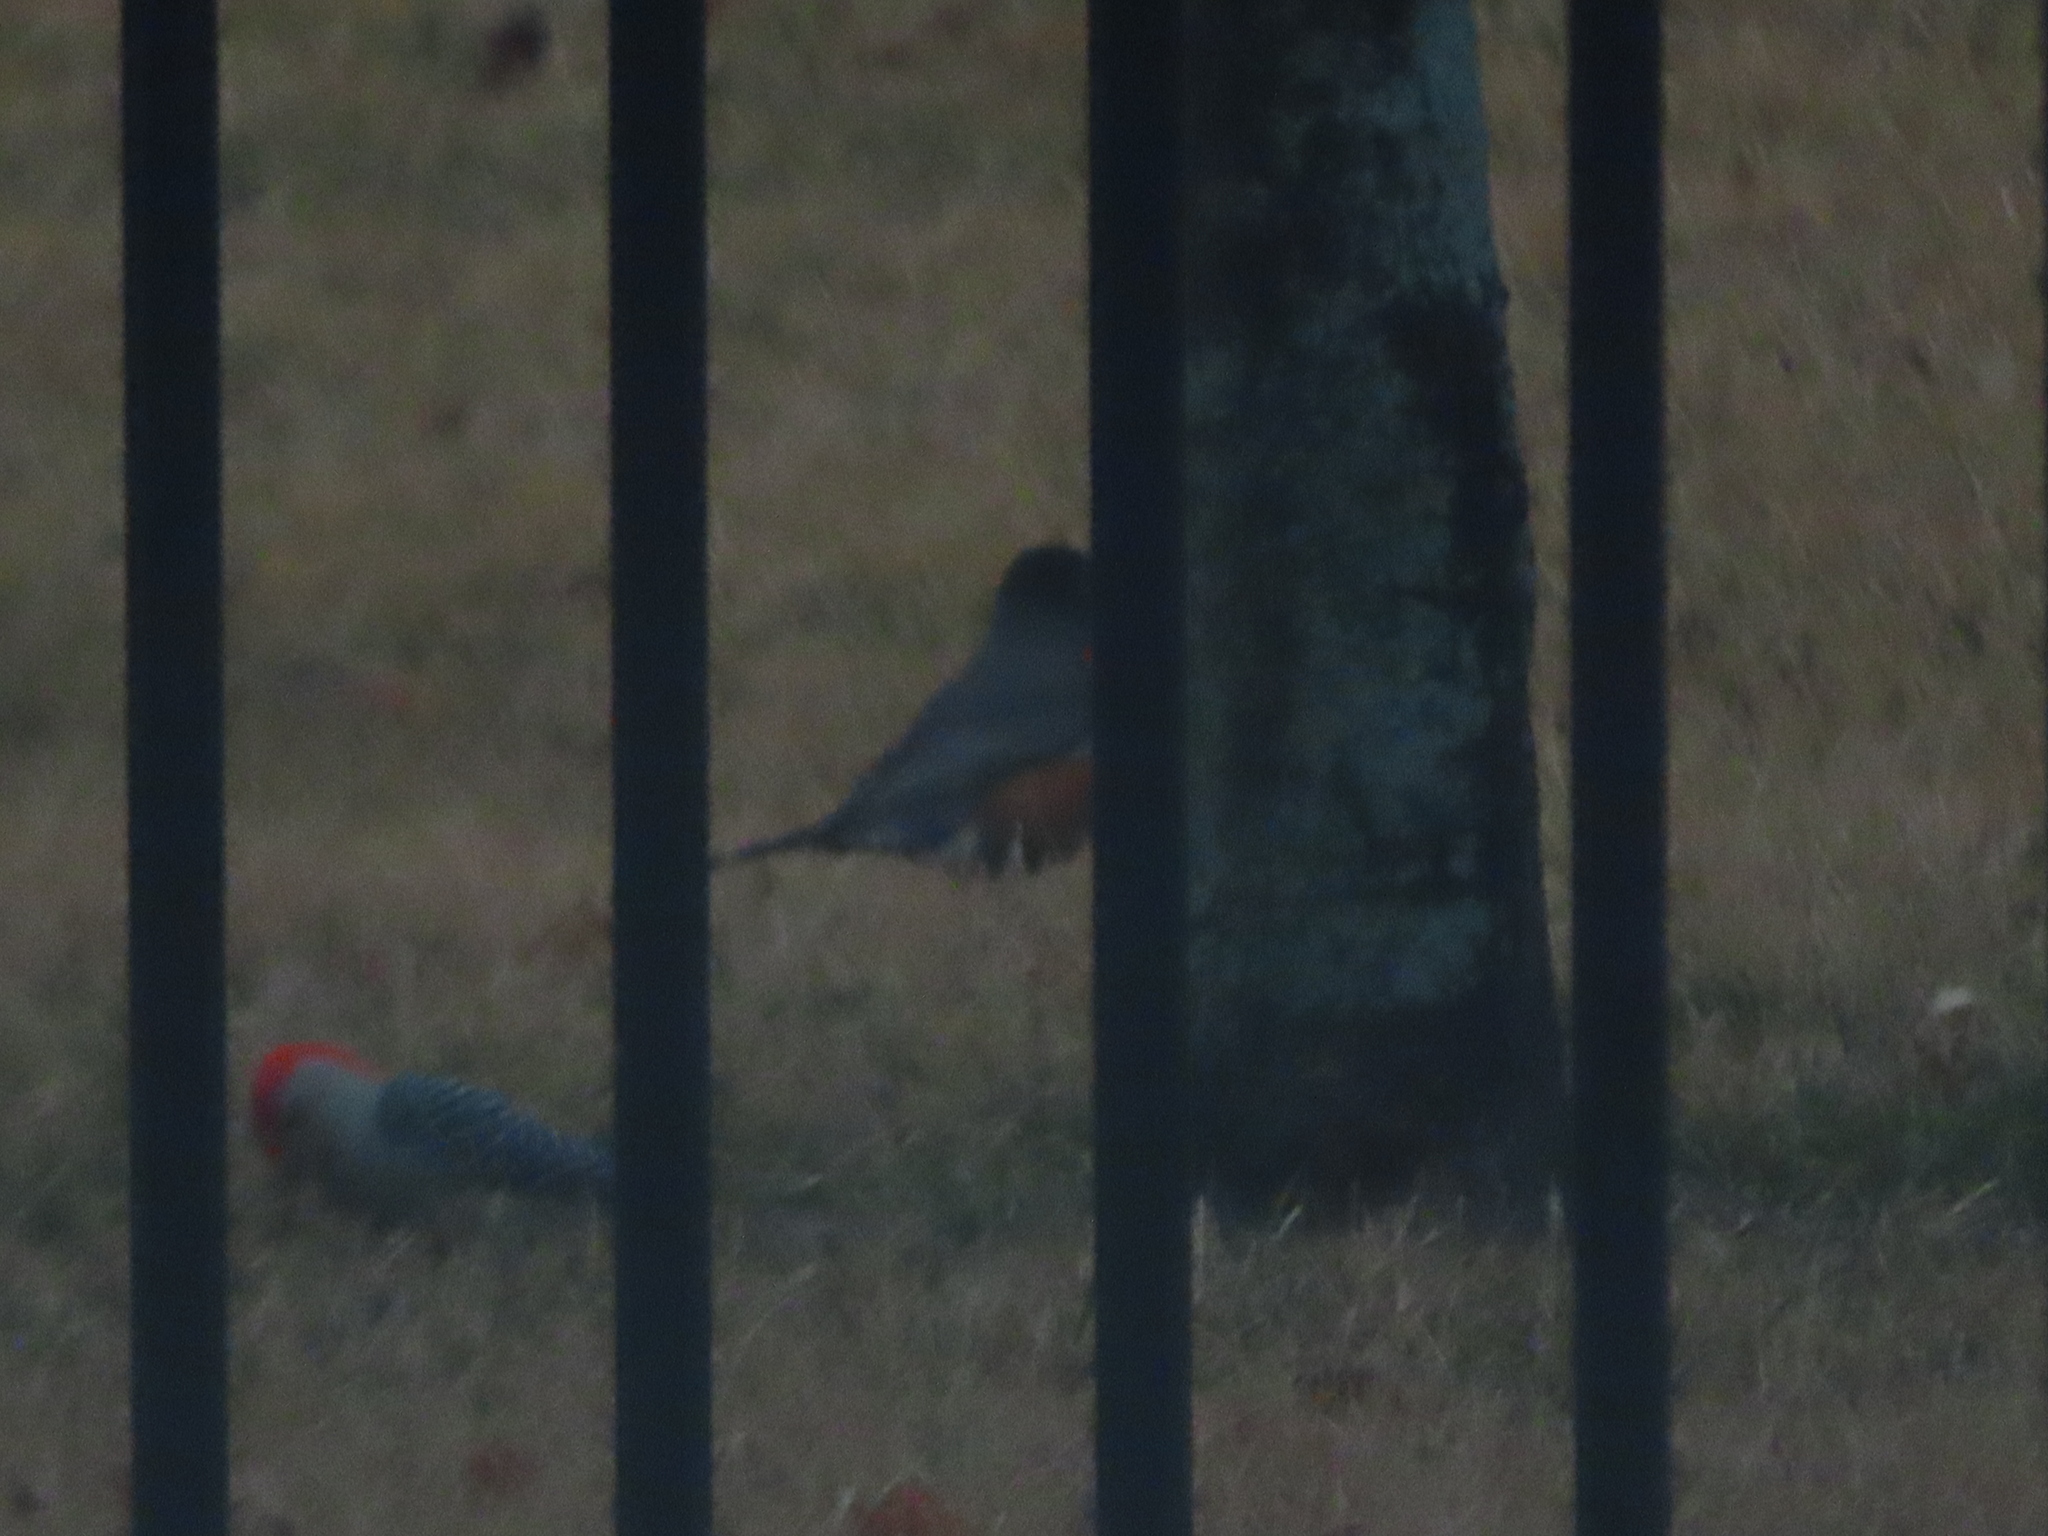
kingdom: Animalia
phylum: Chordata
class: Aves
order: Passeriformes
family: Turdidae
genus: Turdus
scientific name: Turdus migratorius
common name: American robin
